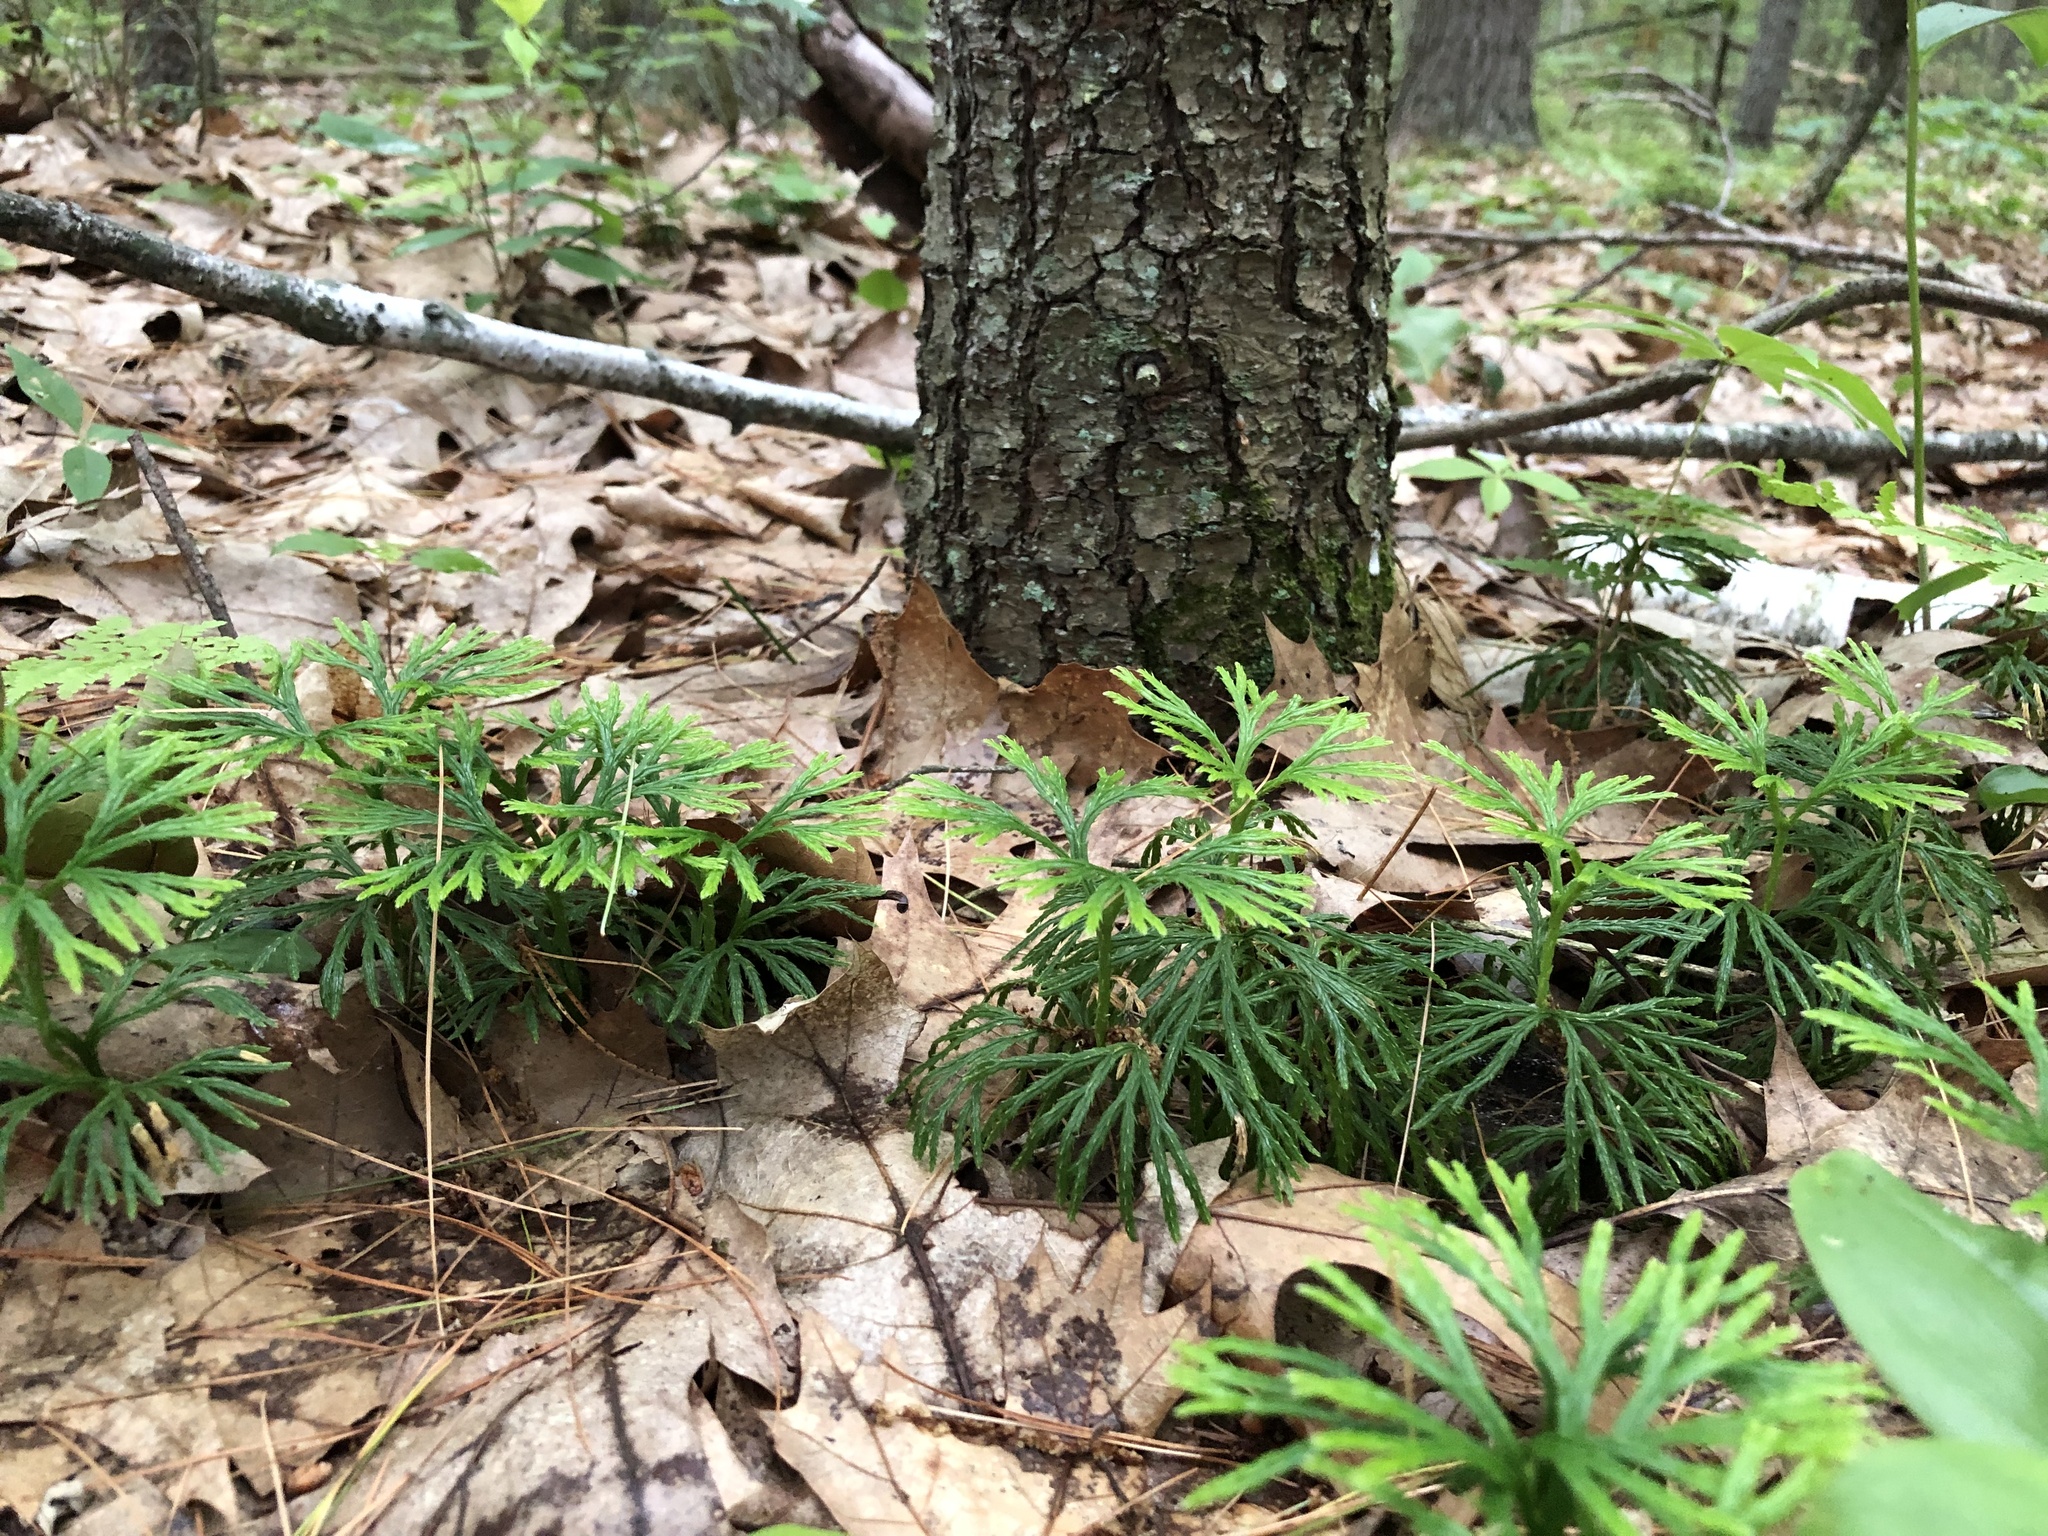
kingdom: Plantae
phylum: Tracheophyta
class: Lycopodiopsida
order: Lycopodiales
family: Lycopodiaceae
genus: Diphasiastrum
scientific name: Diphasiastrum digitatum
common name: Southern running-pine
